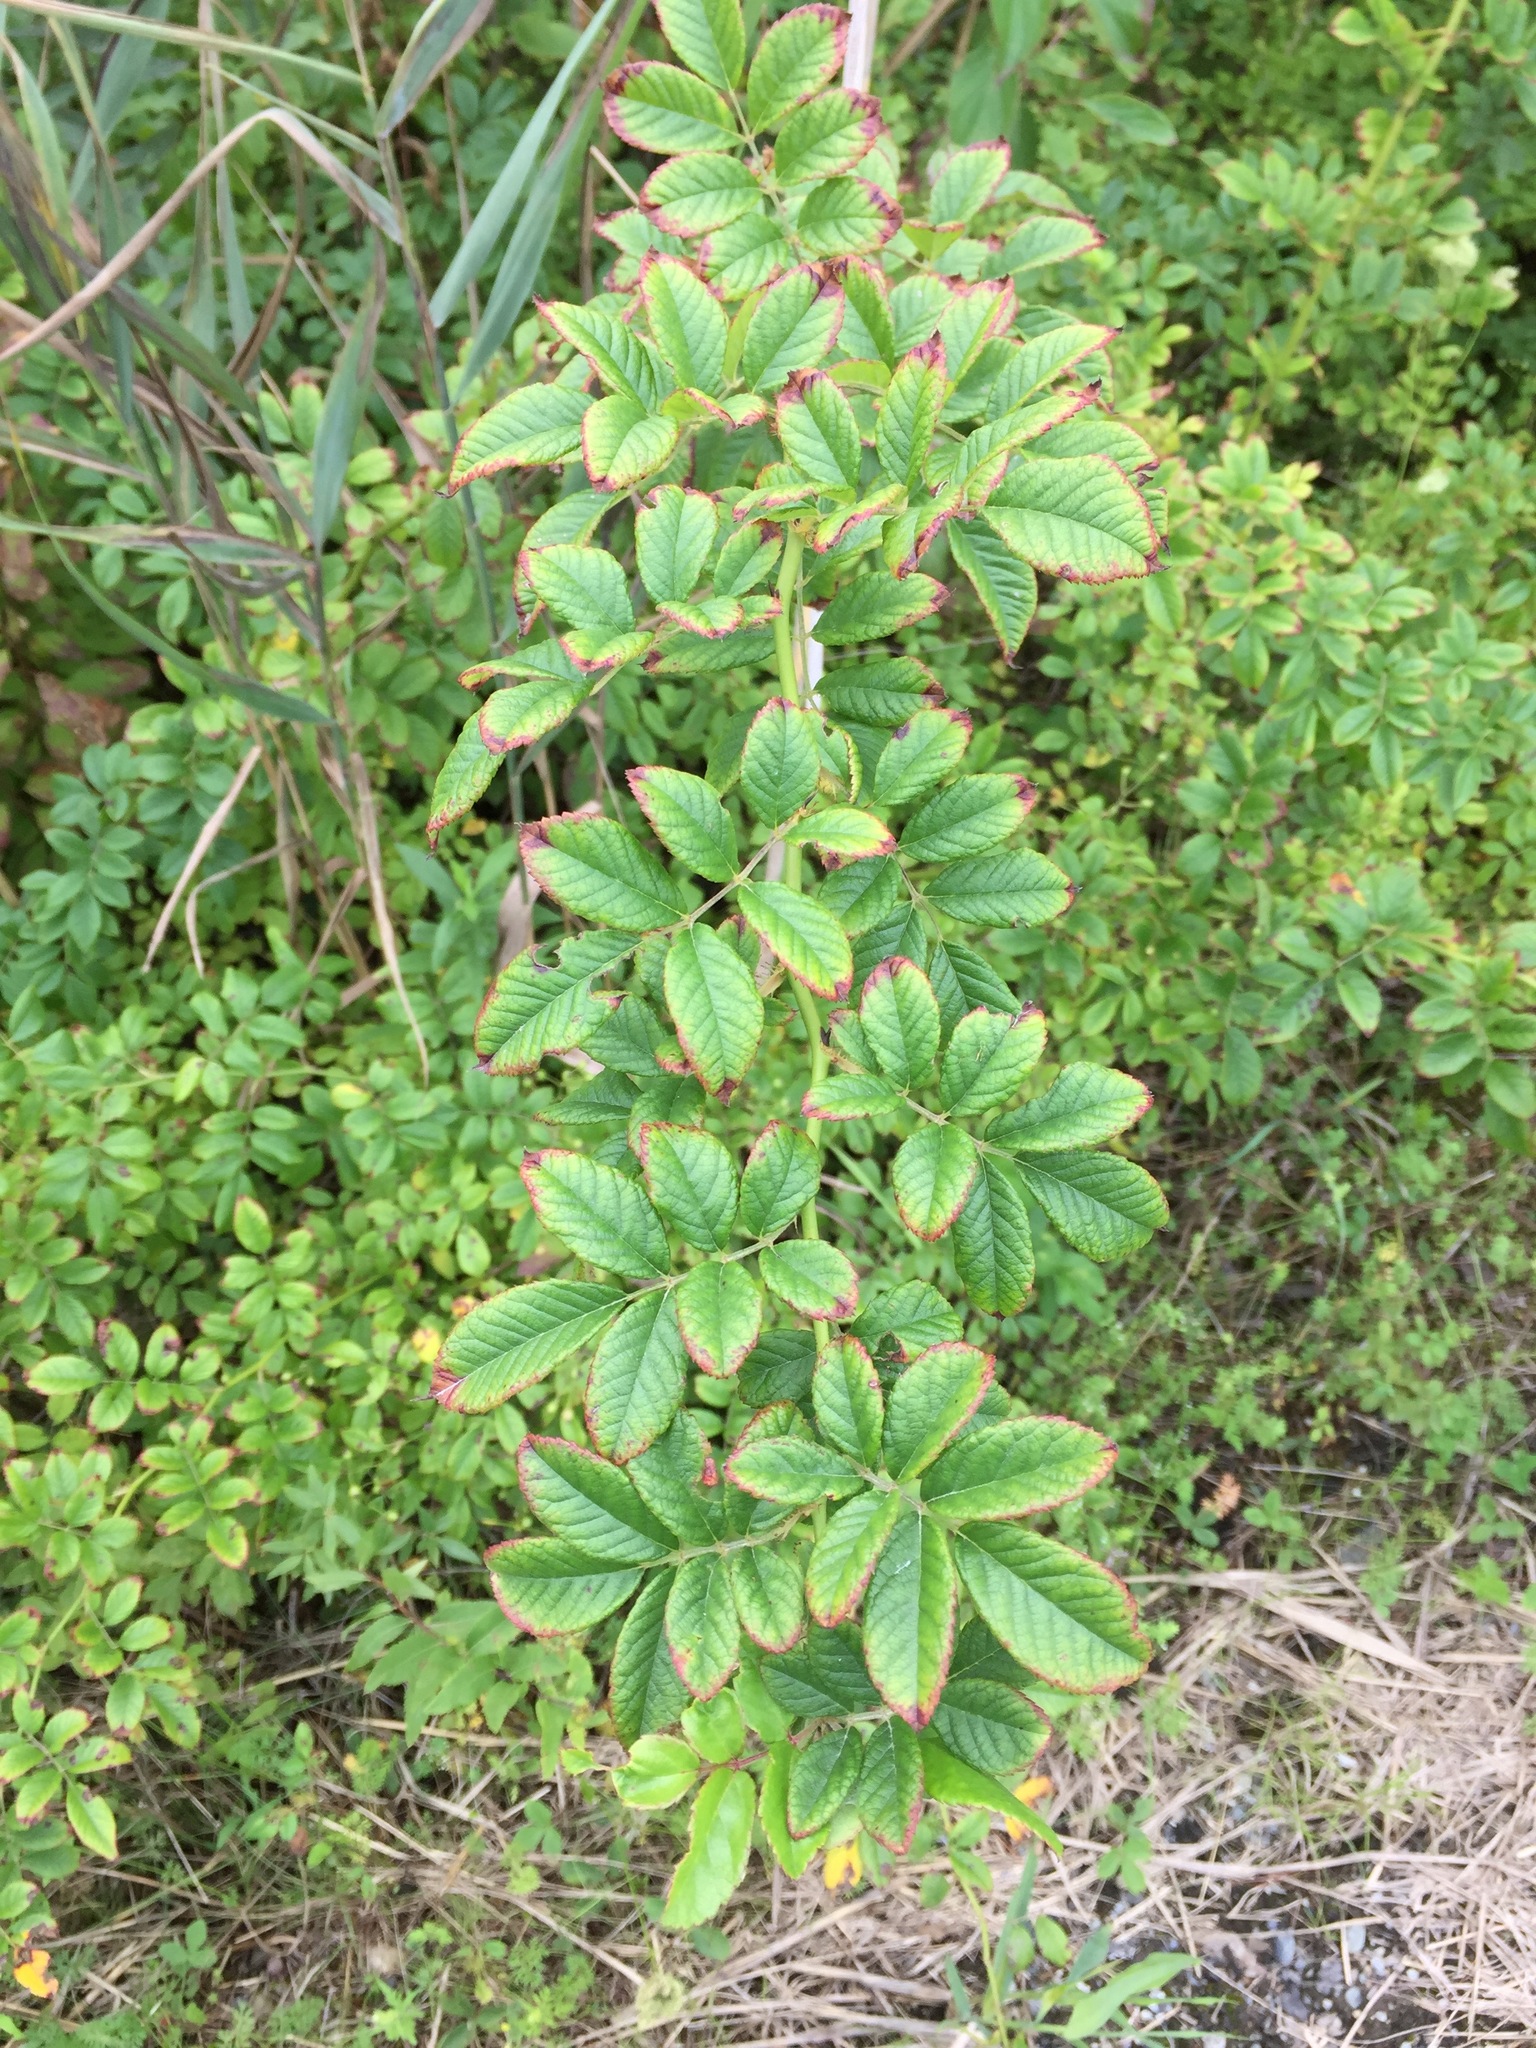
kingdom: Plantae
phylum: Tracheophyta
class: Magnoliopsida
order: Rosales
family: Rosaceae
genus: Rosa
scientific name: Rosa multiflora
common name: Multiflora rose
